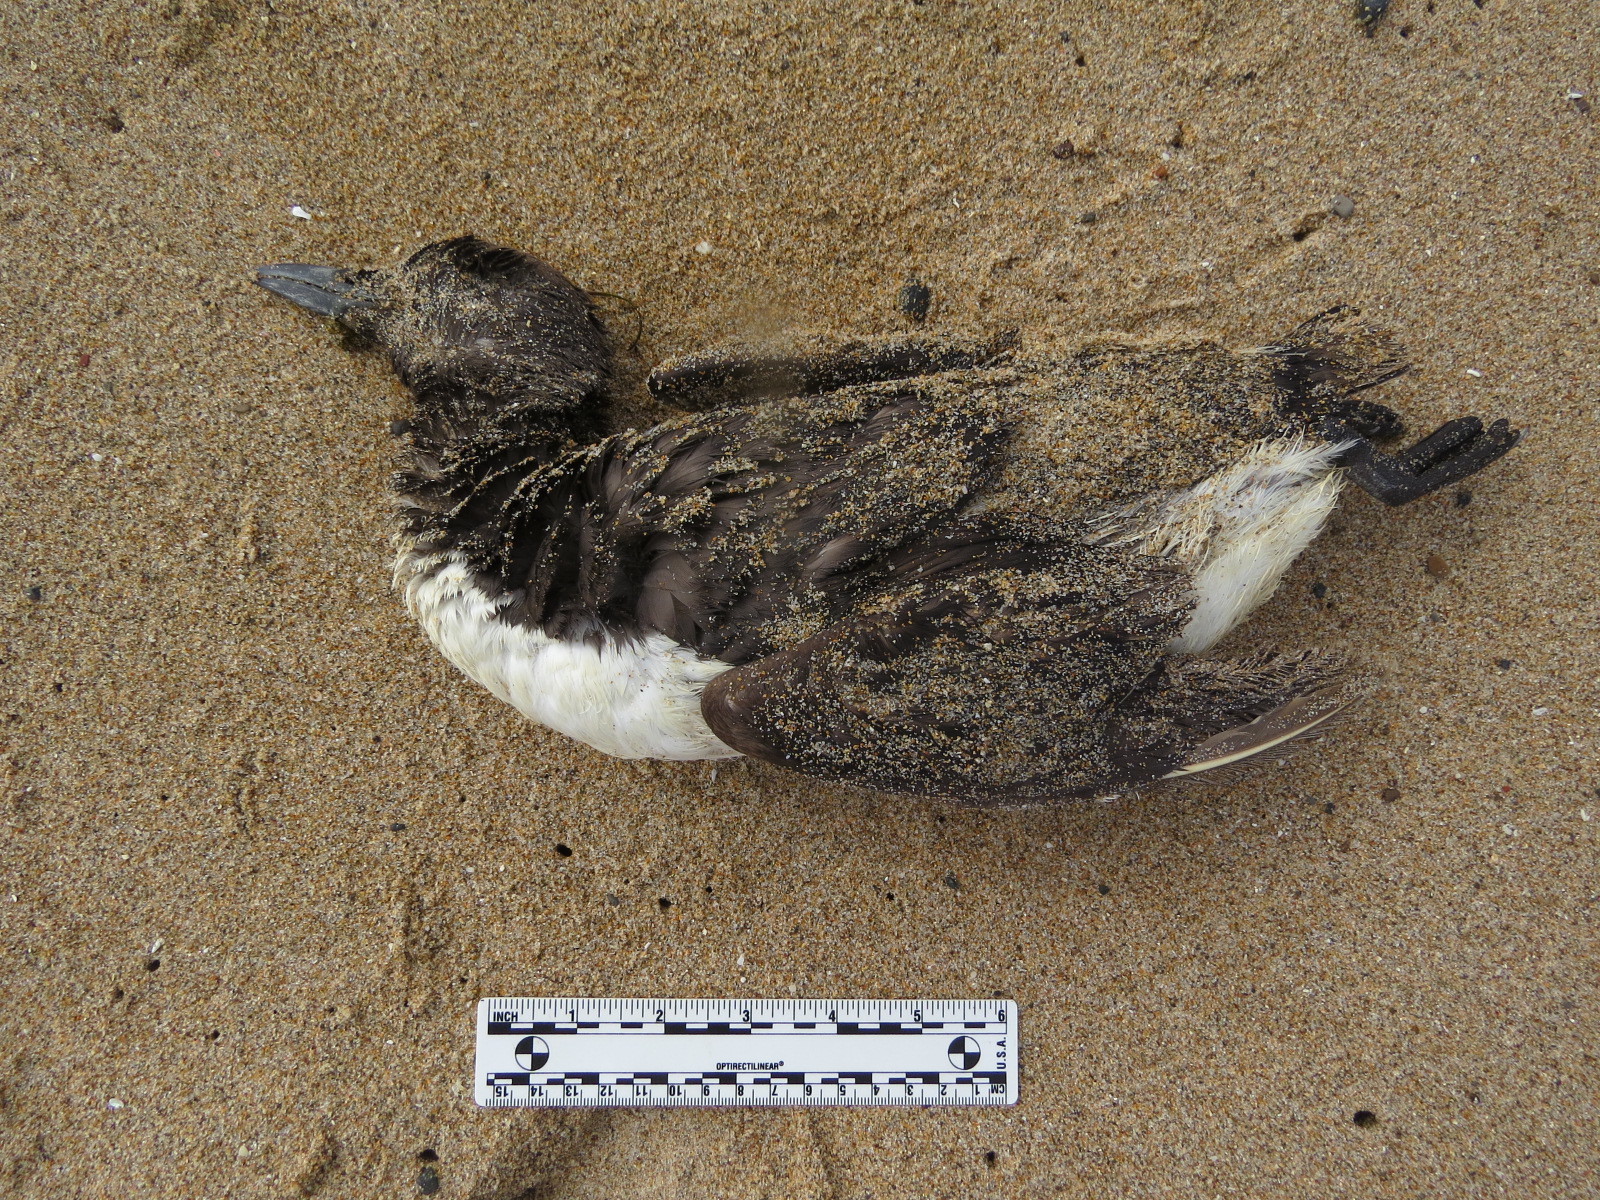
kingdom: Animalia
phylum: Chordata
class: Aves
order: Charadriiformes
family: Alcidae
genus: Uria
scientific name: Uria aalge
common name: Common murre
